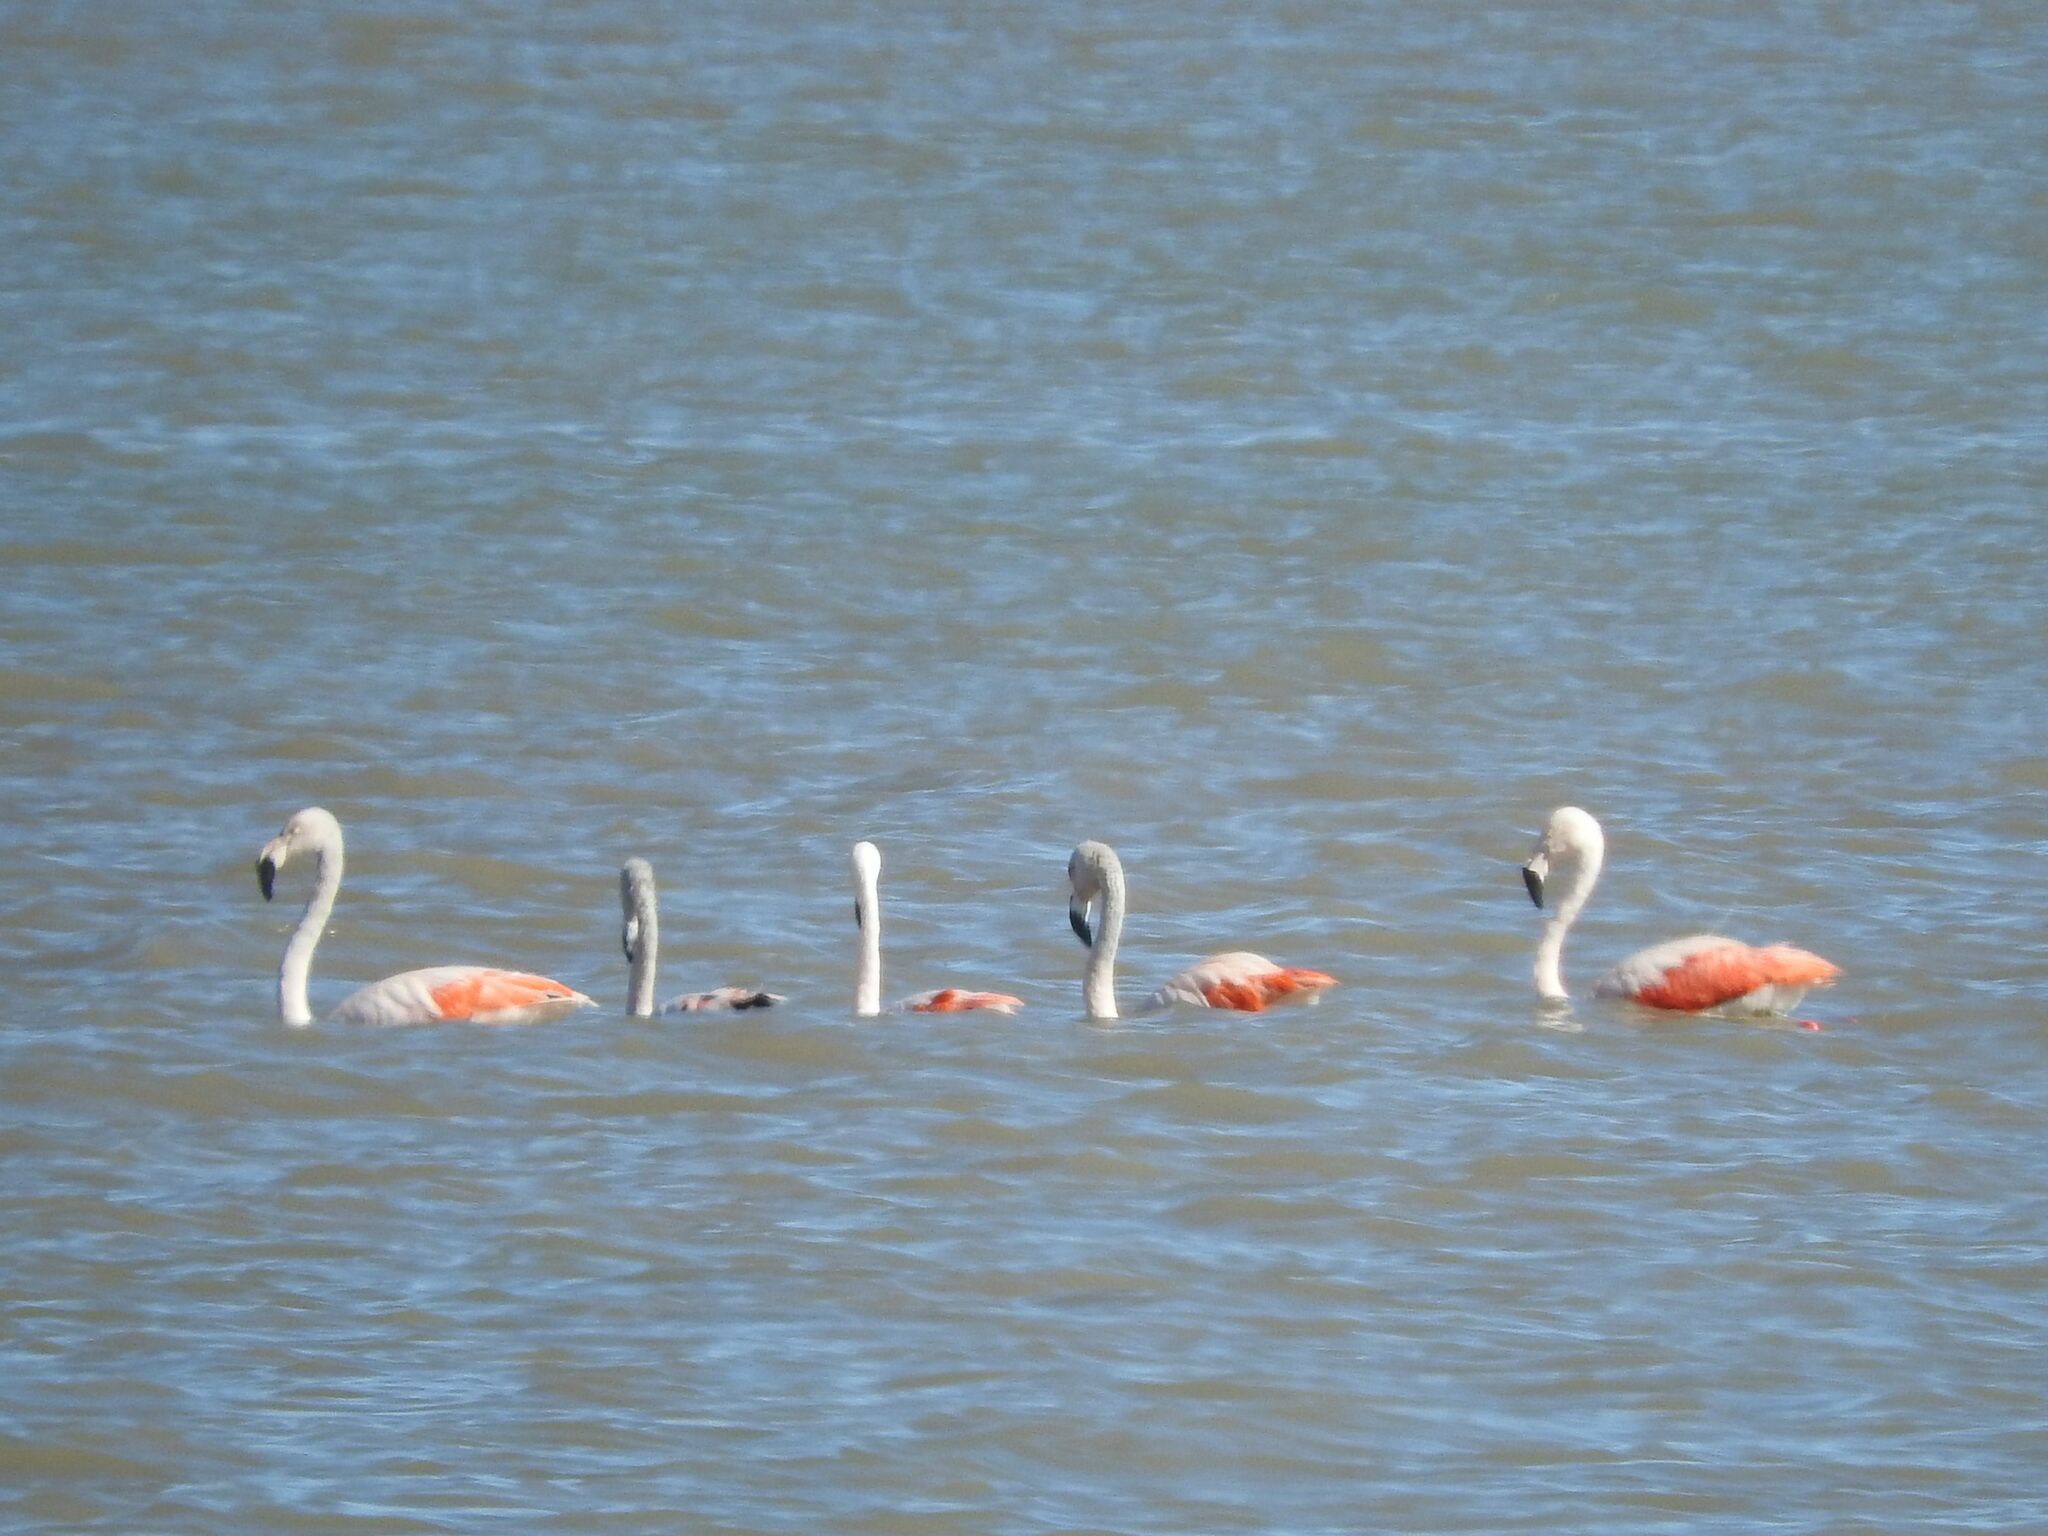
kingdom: Animalia
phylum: Chordata
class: Aves
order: Phoenicopteriformes
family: Phoenicopteridae
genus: Phoenicopterus
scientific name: Phoenicopterus chilensis
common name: Chilean flamingo
